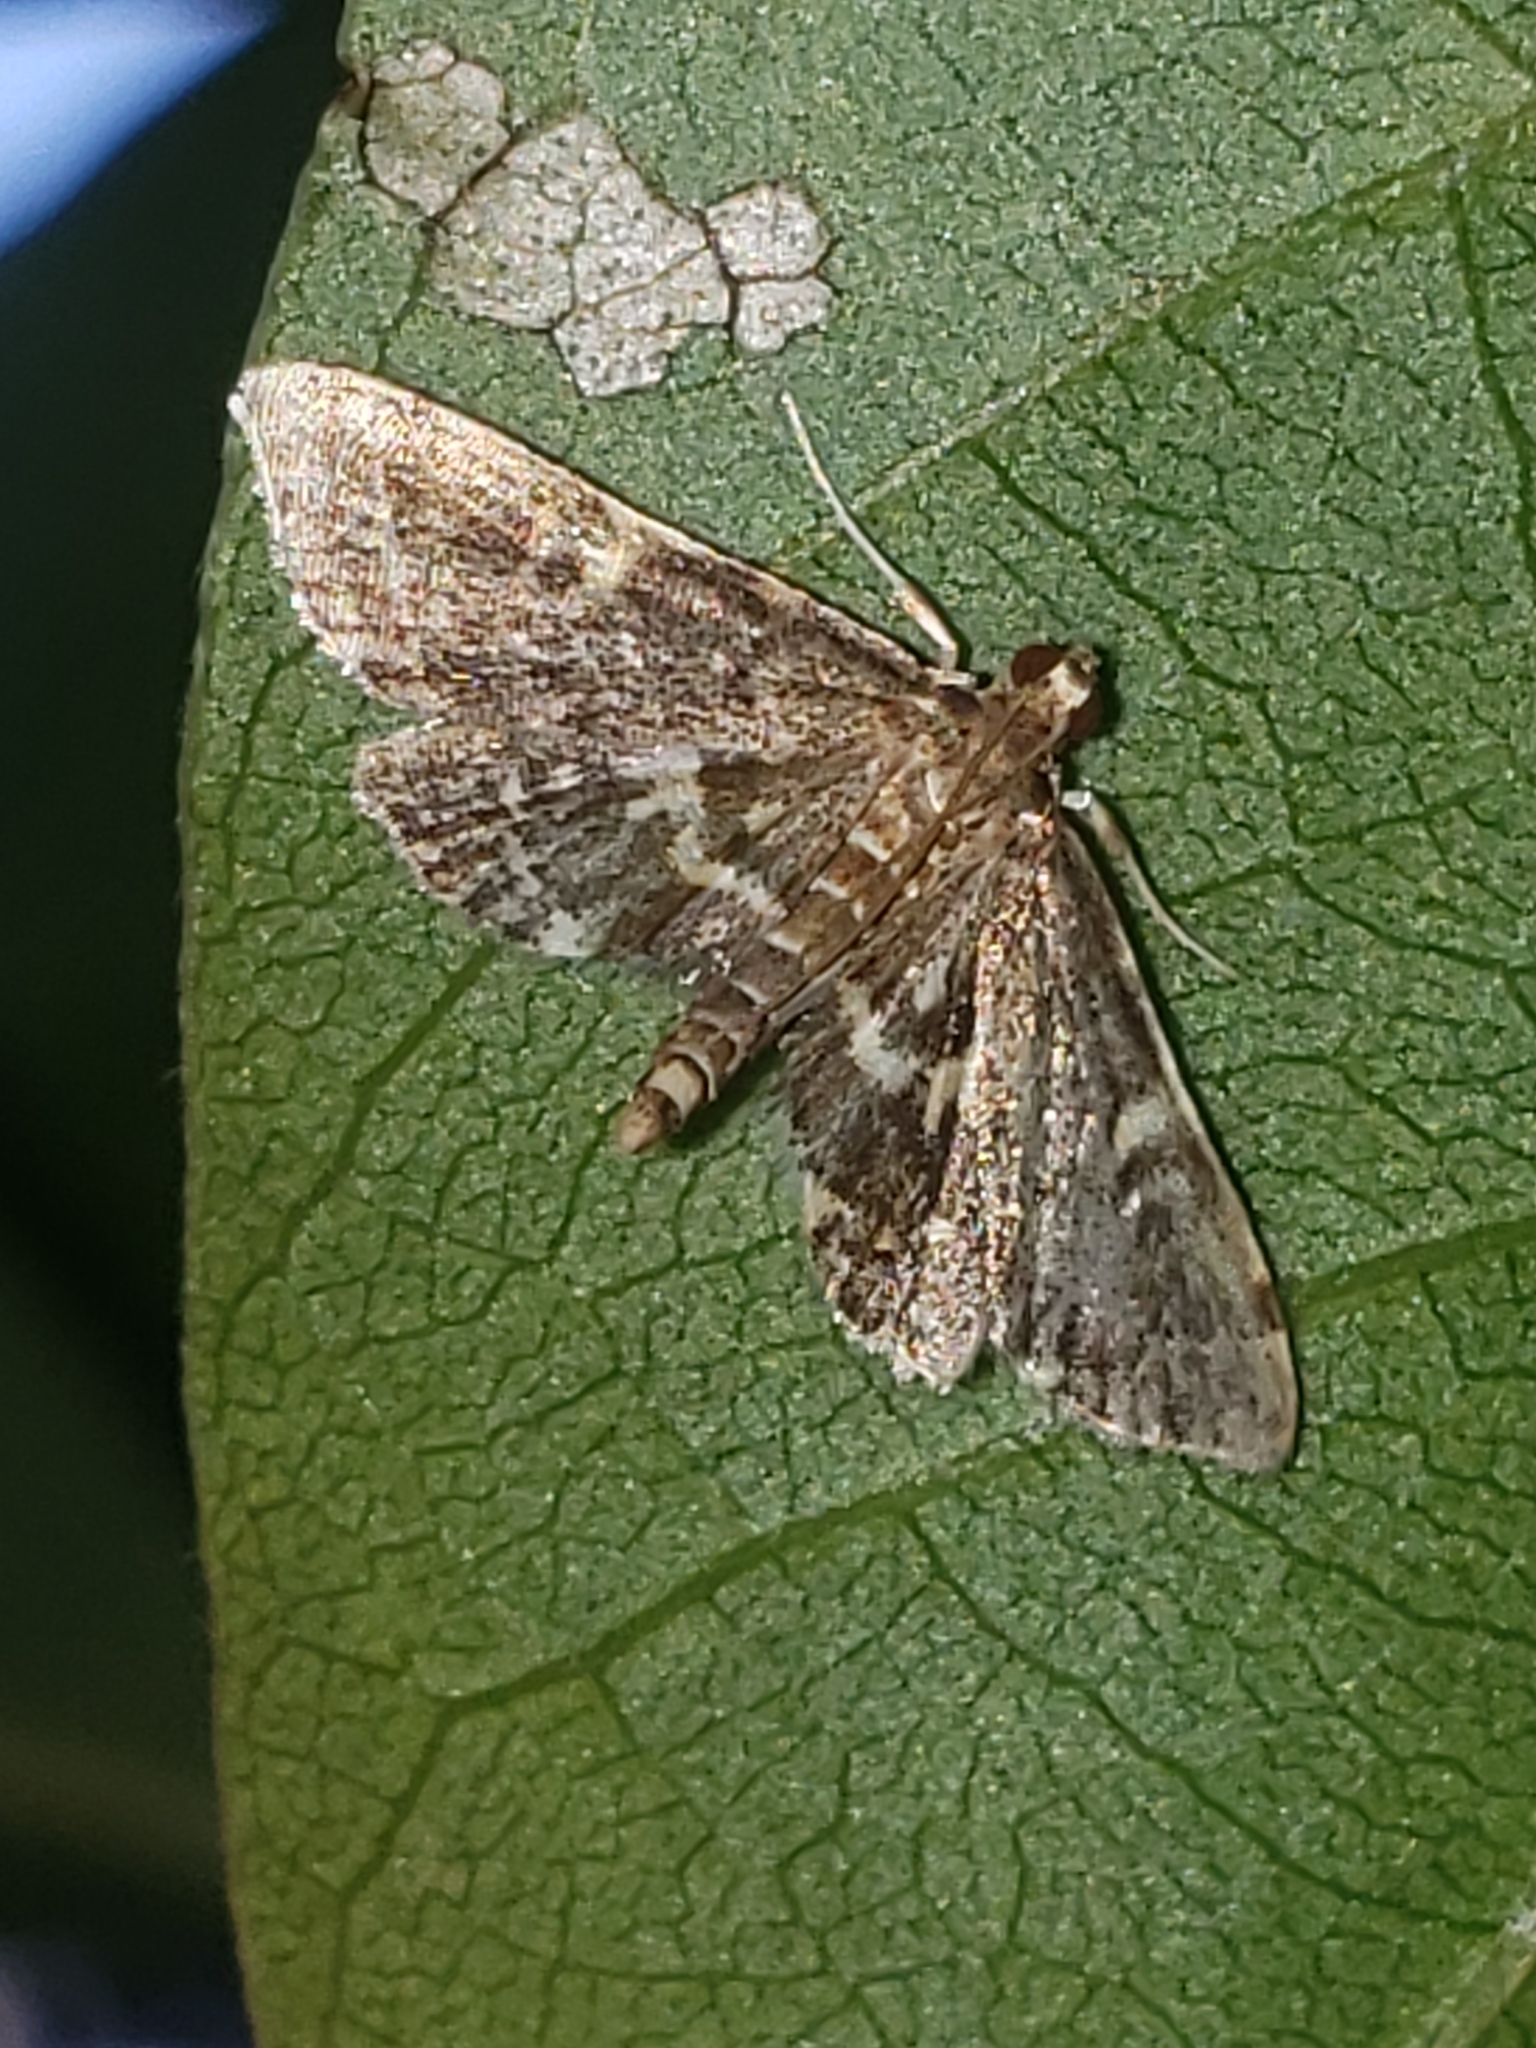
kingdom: Animalia
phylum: Arthropoda
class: Insecta
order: Lepidoptera
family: Crambidae
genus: Anageshna
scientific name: Anageshna primordialis
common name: Yellow-spotted webworm moth
